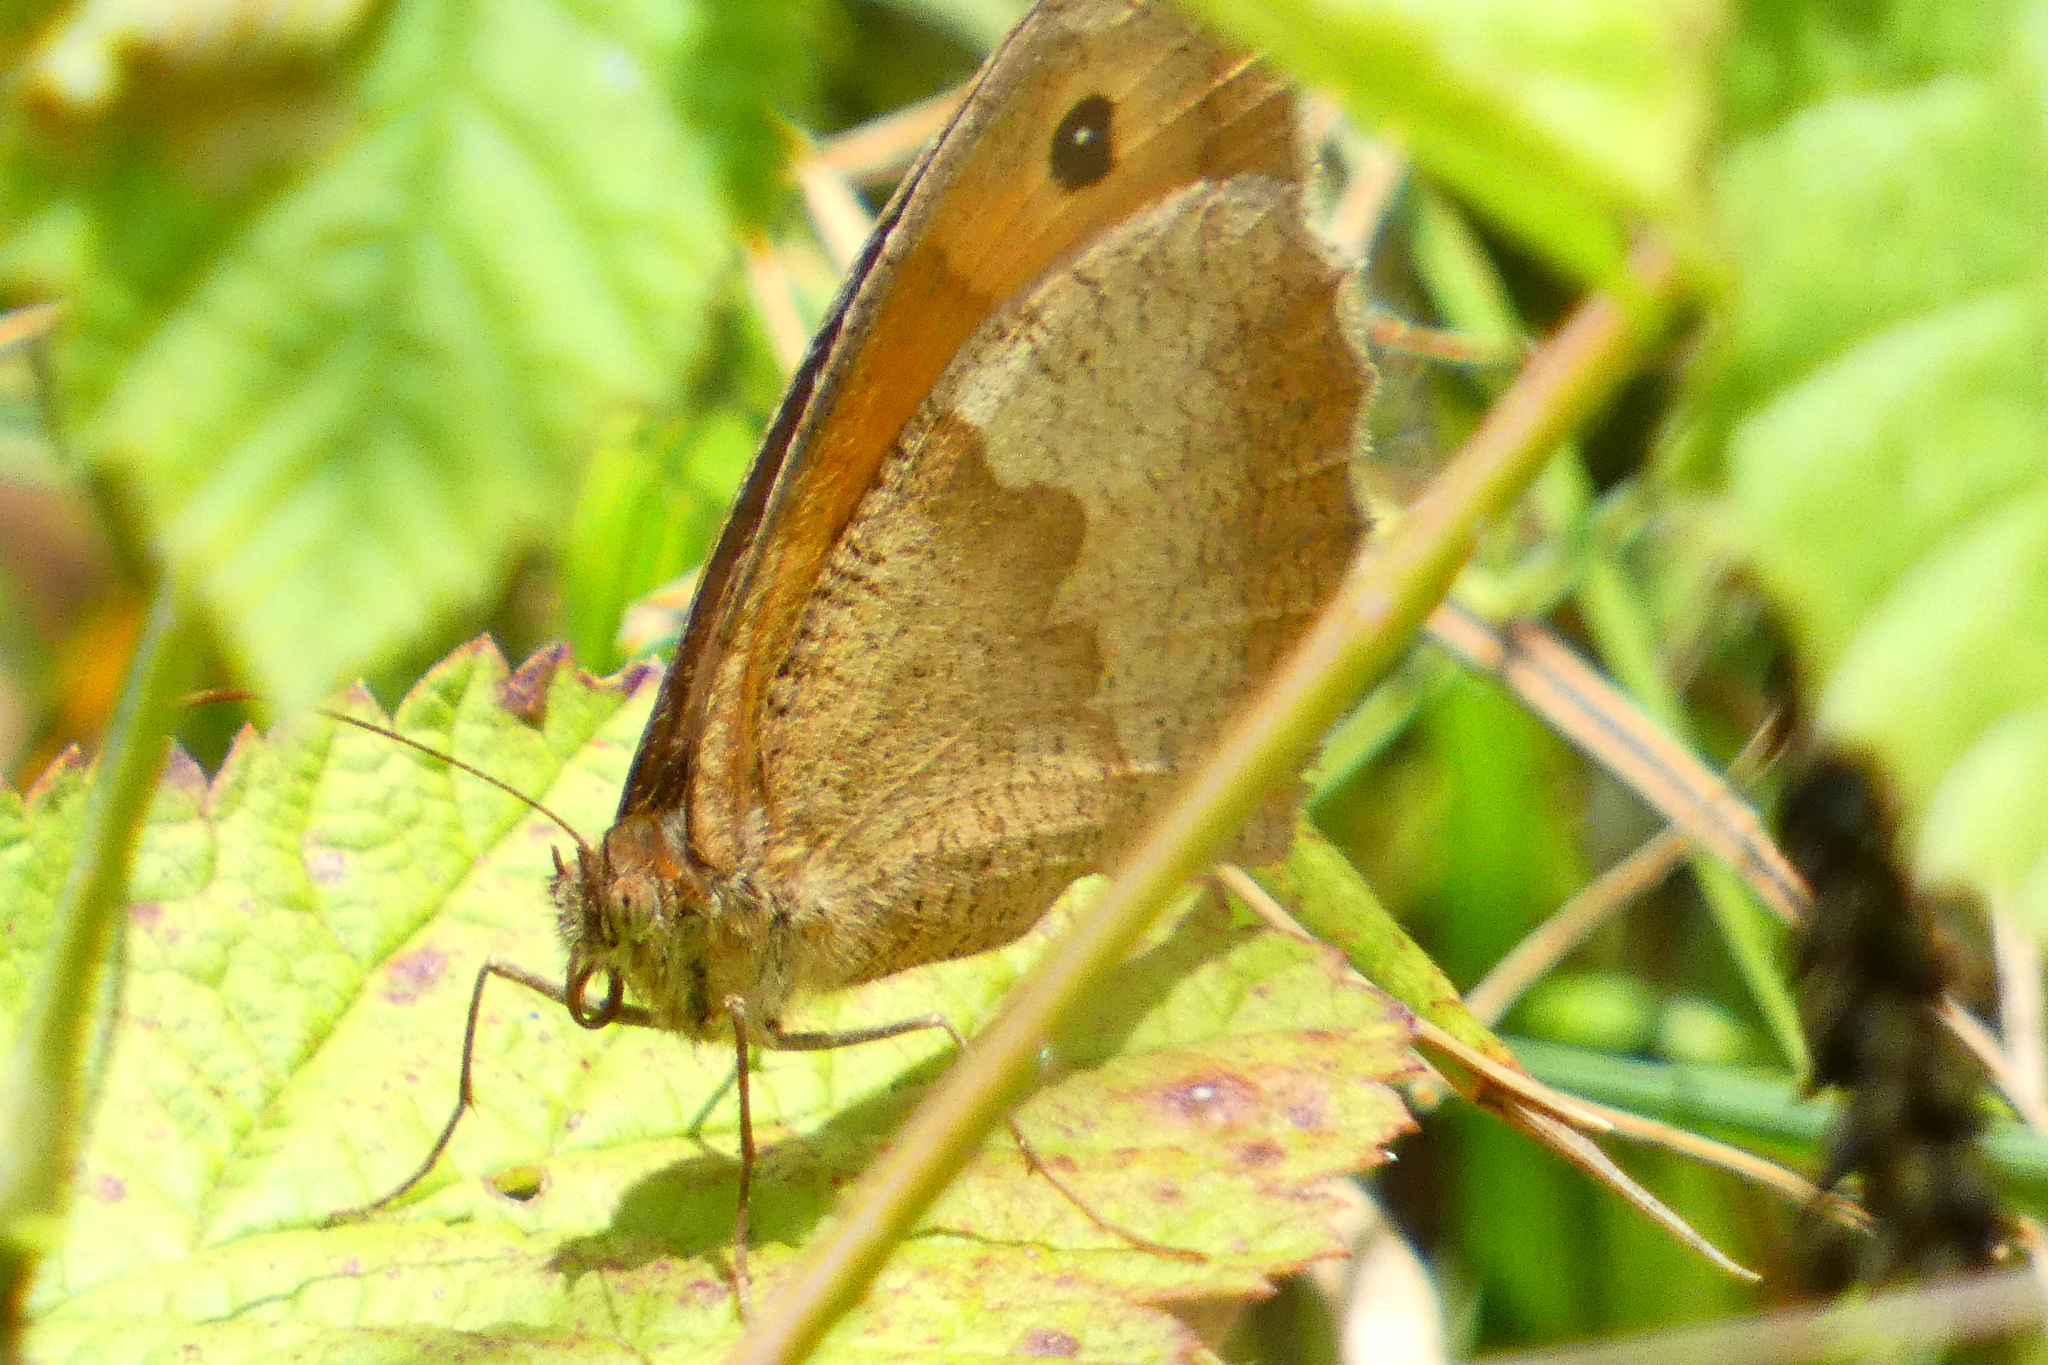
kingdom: Animalia
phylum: Arthropoda
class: Insecta
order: Lepidoptera
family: Nymphalidae
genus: Maniola
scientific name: Maniola jurtina
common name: Meadow brown
